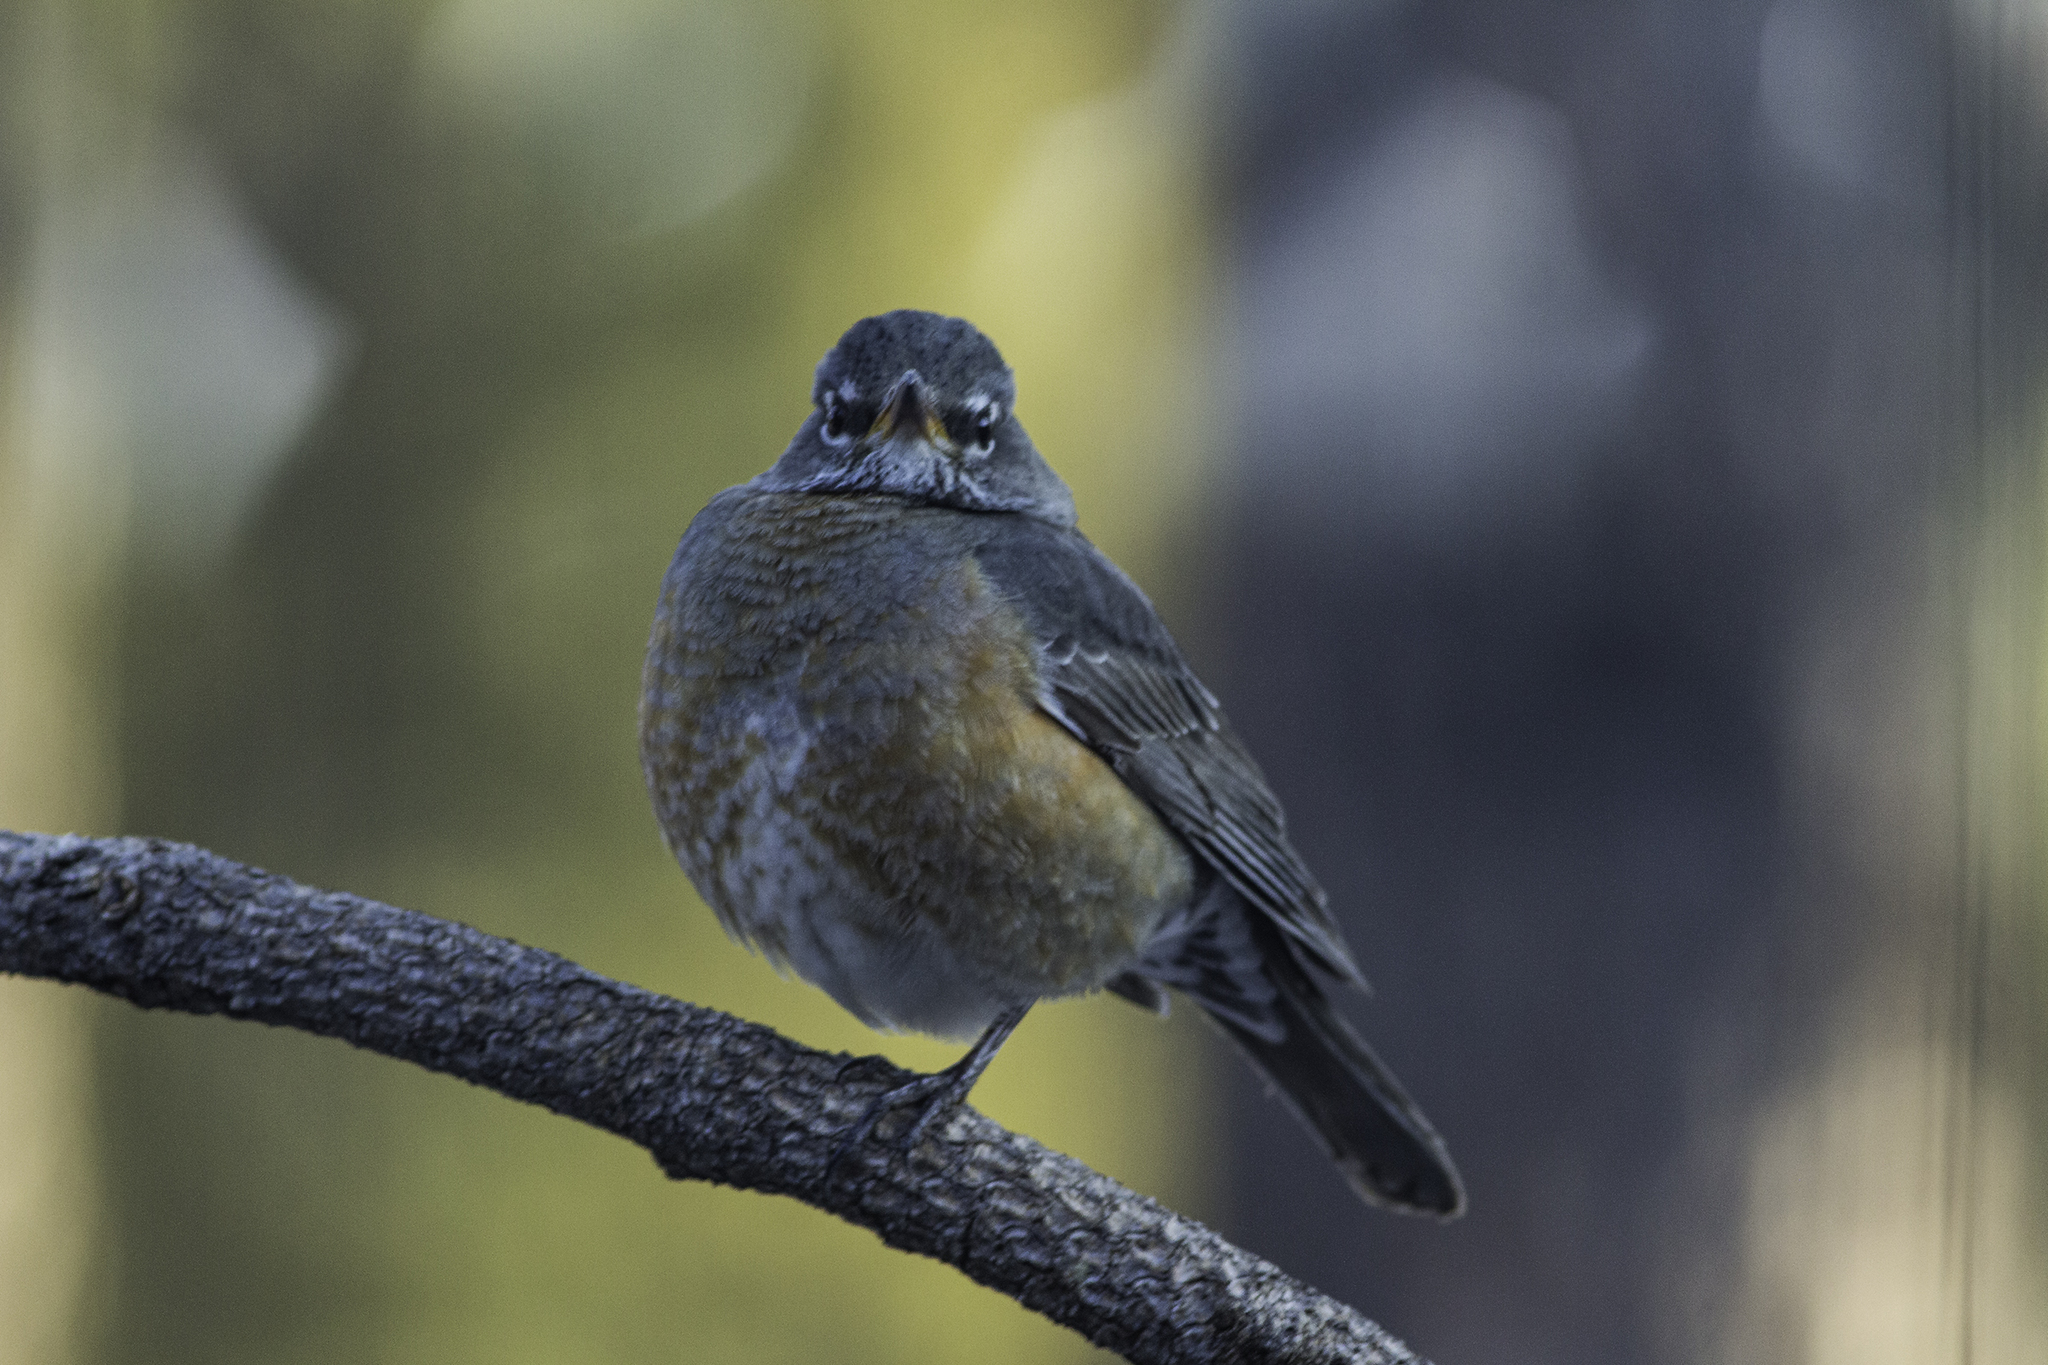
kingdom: Animalia
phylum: Chordata
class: Aves
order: Passeriformes
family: Turdidae
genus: Turdus
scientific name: Turdus migratorius
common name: American robin
